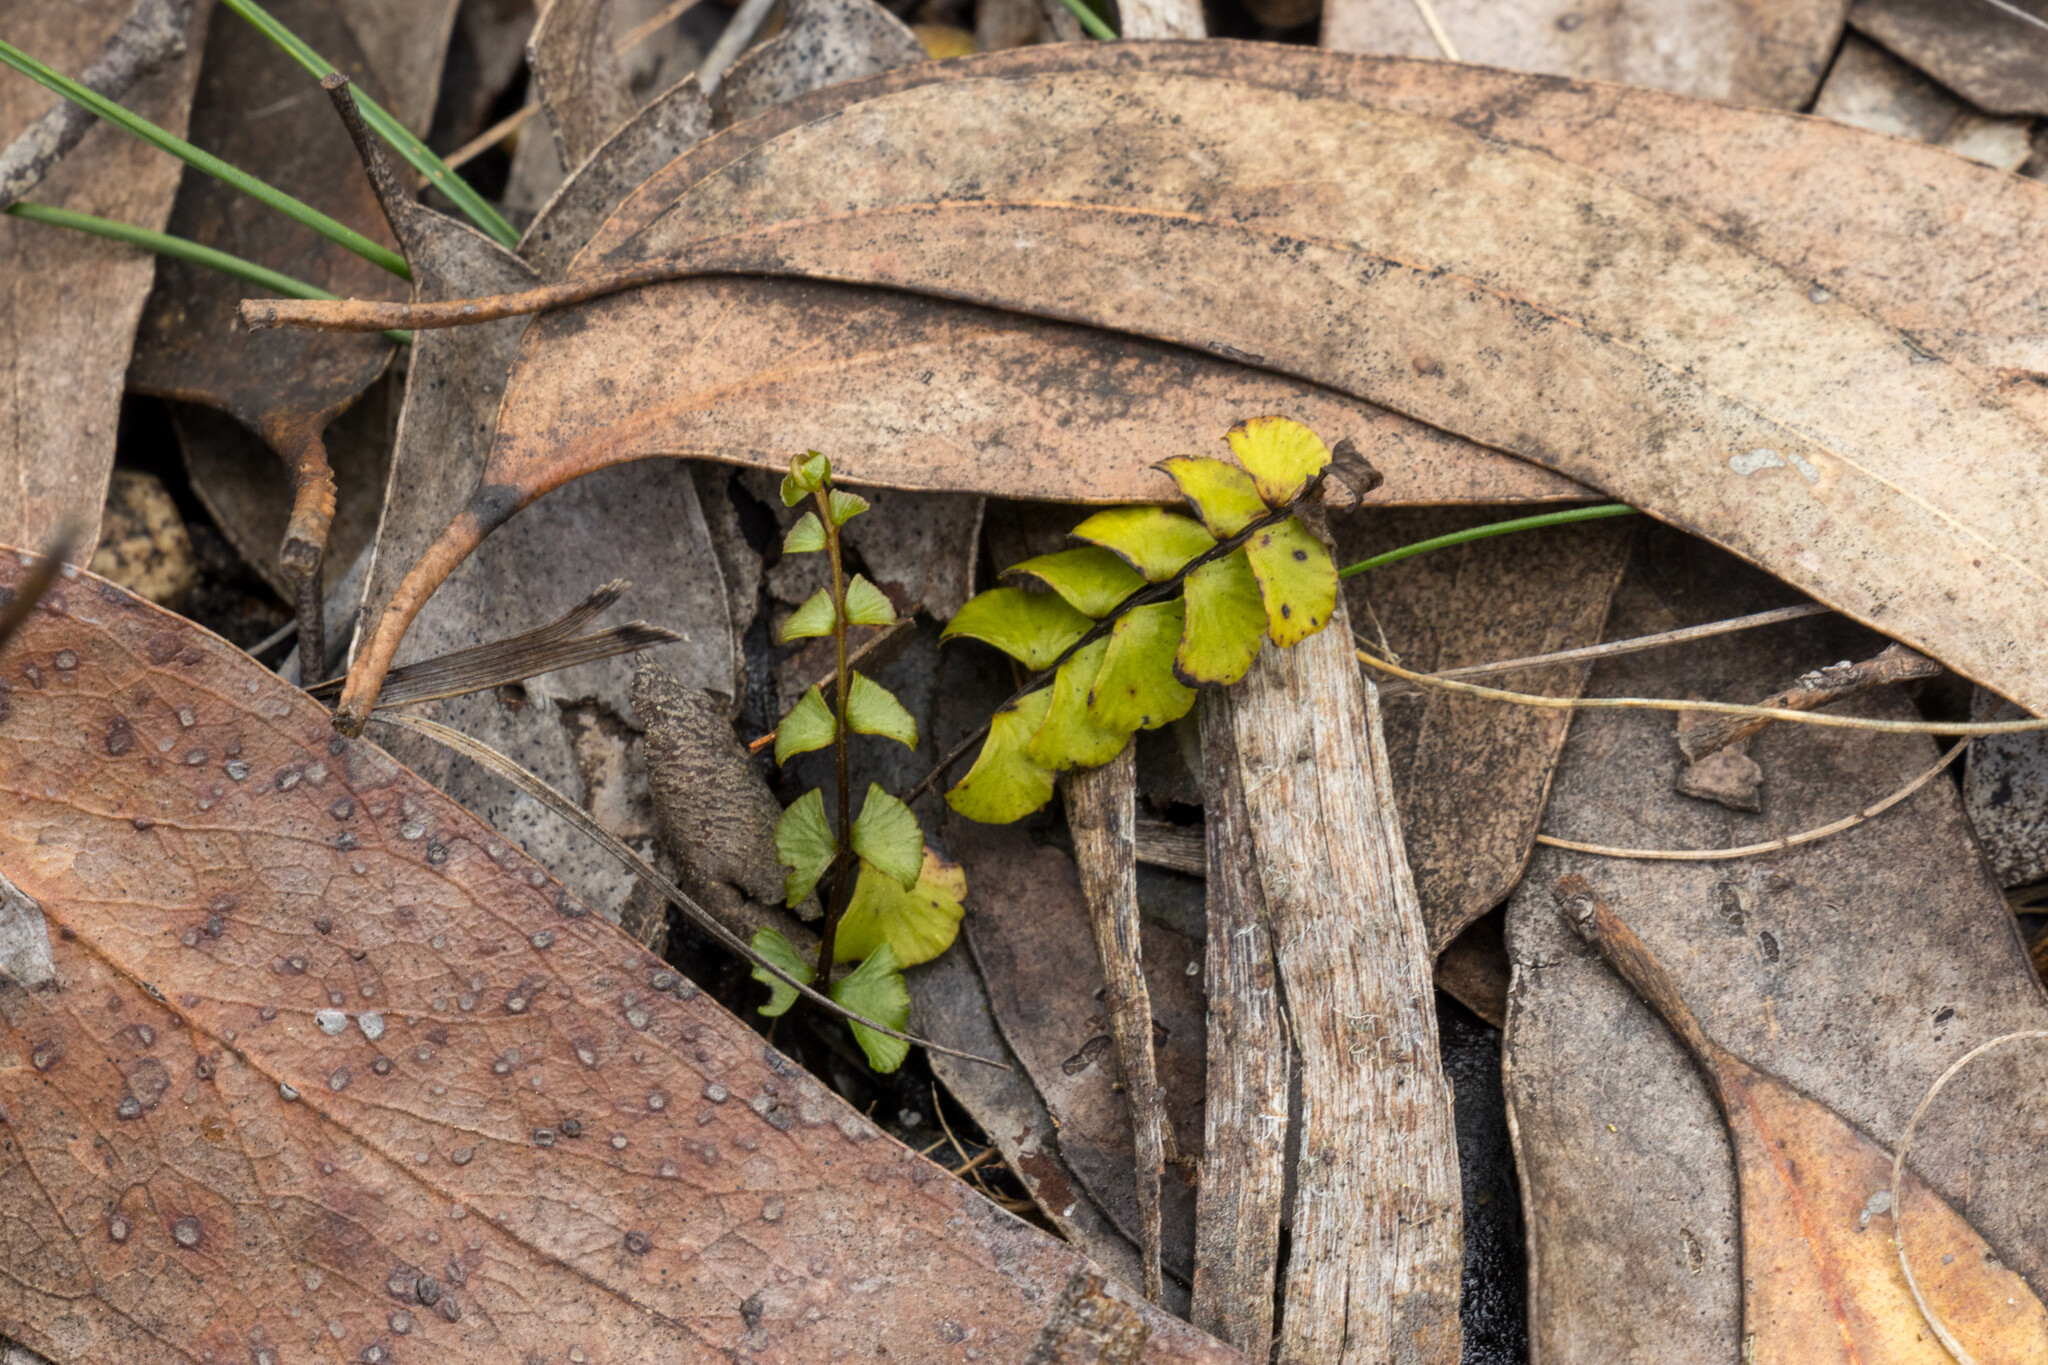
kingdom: Plantae
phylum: Tracheophyta
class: Polypodiopsida
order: Polypodiales
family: Lindsaeaceae
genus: Lindsaea
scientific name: Lindsaea linearis
